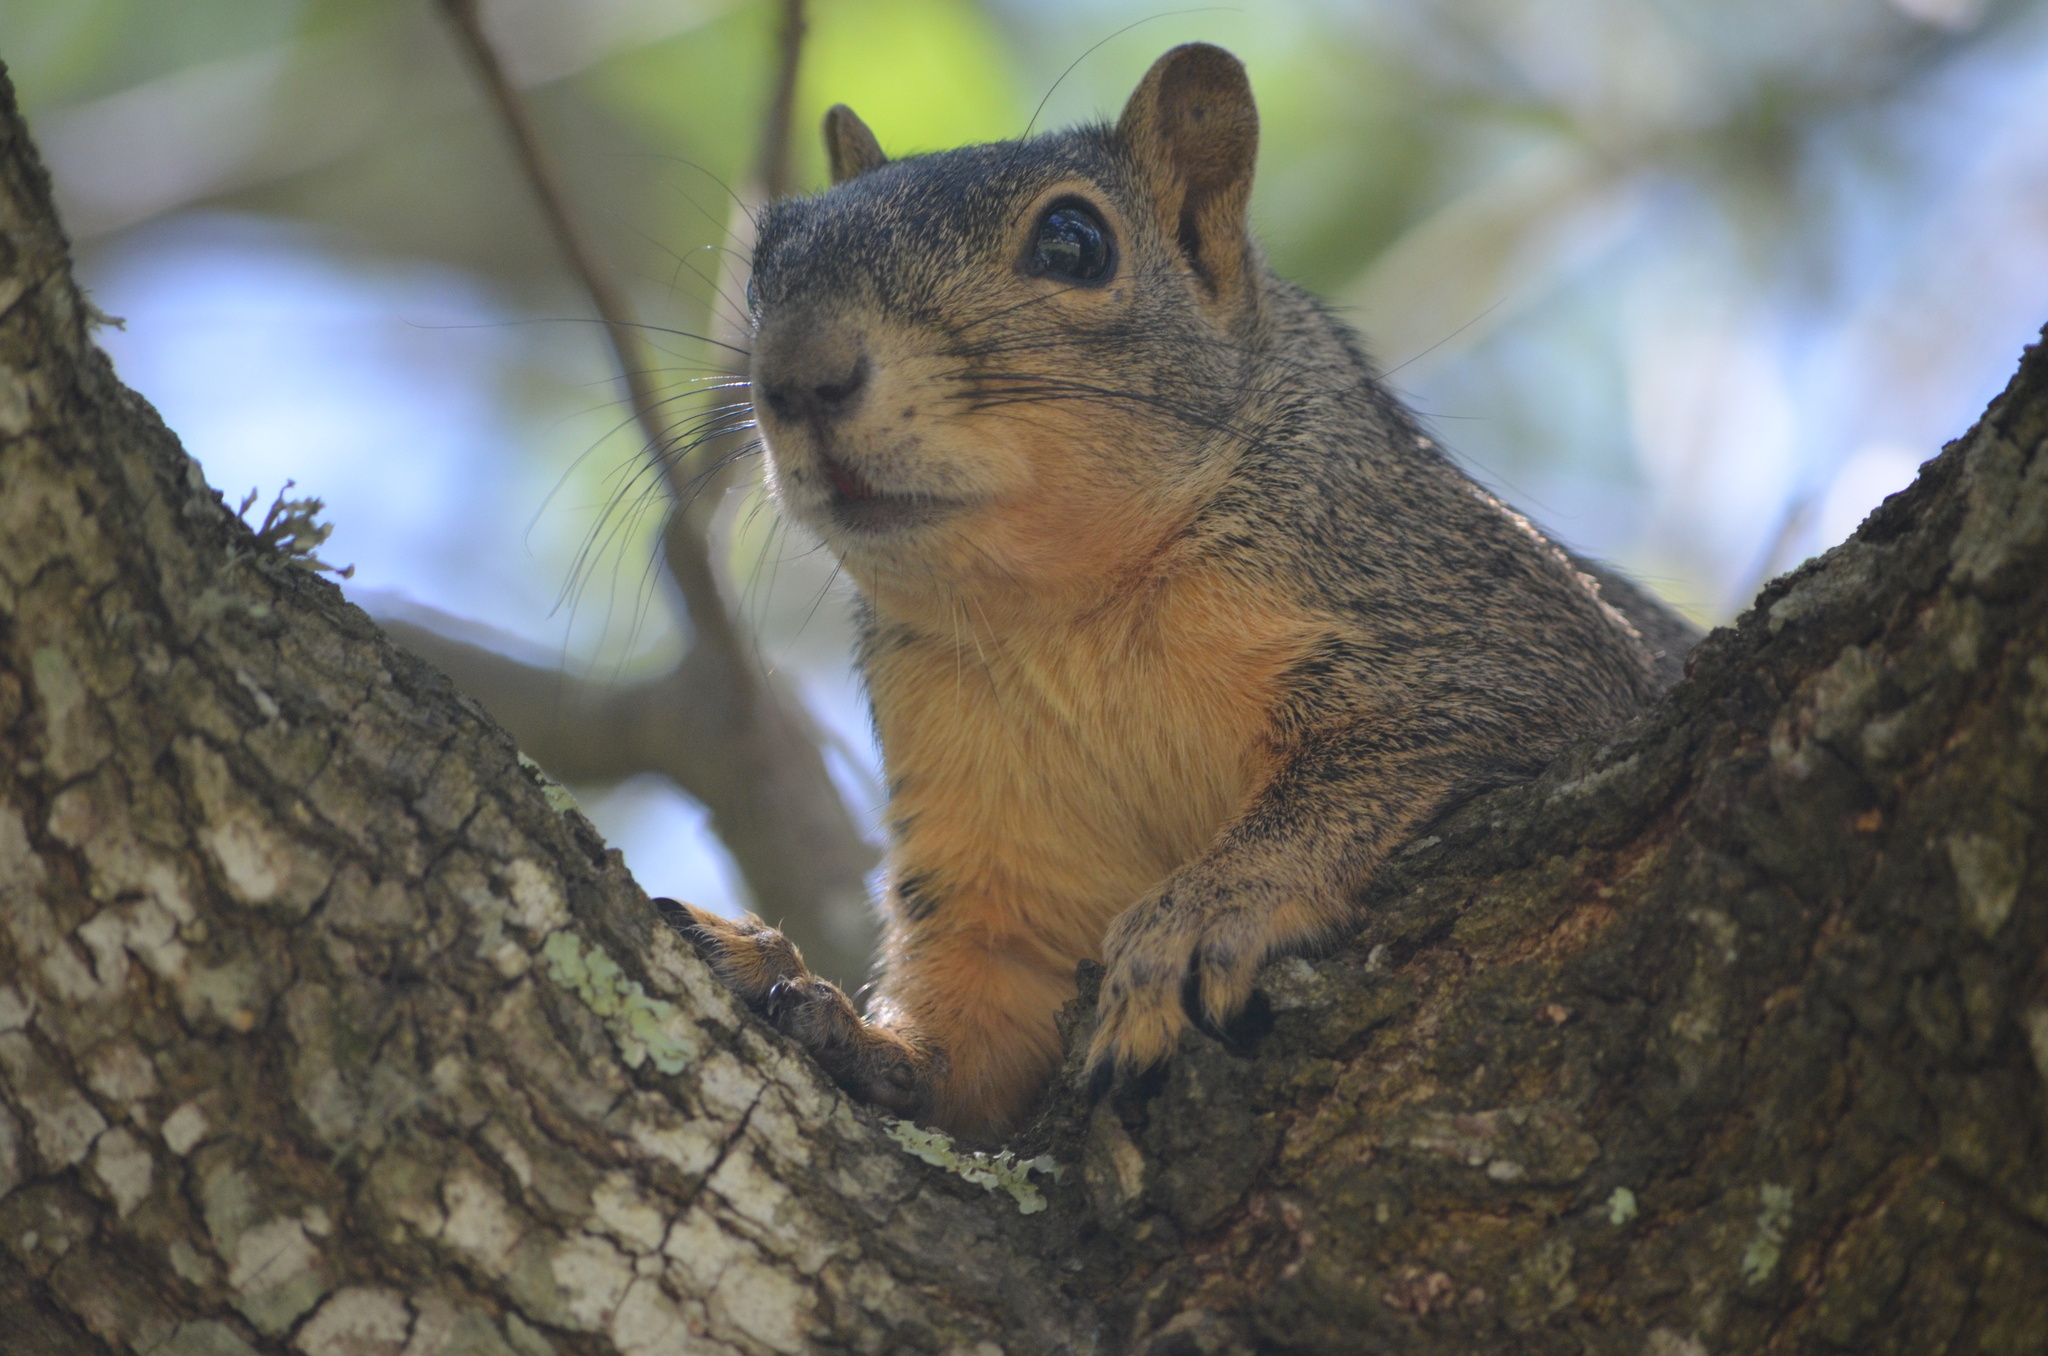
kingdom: Animalia
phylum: Chordata
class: Mammalia
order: Rodentia
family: Sciuridae
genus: Sciurus
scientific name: Sciurus niger
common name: Fox squirrel
